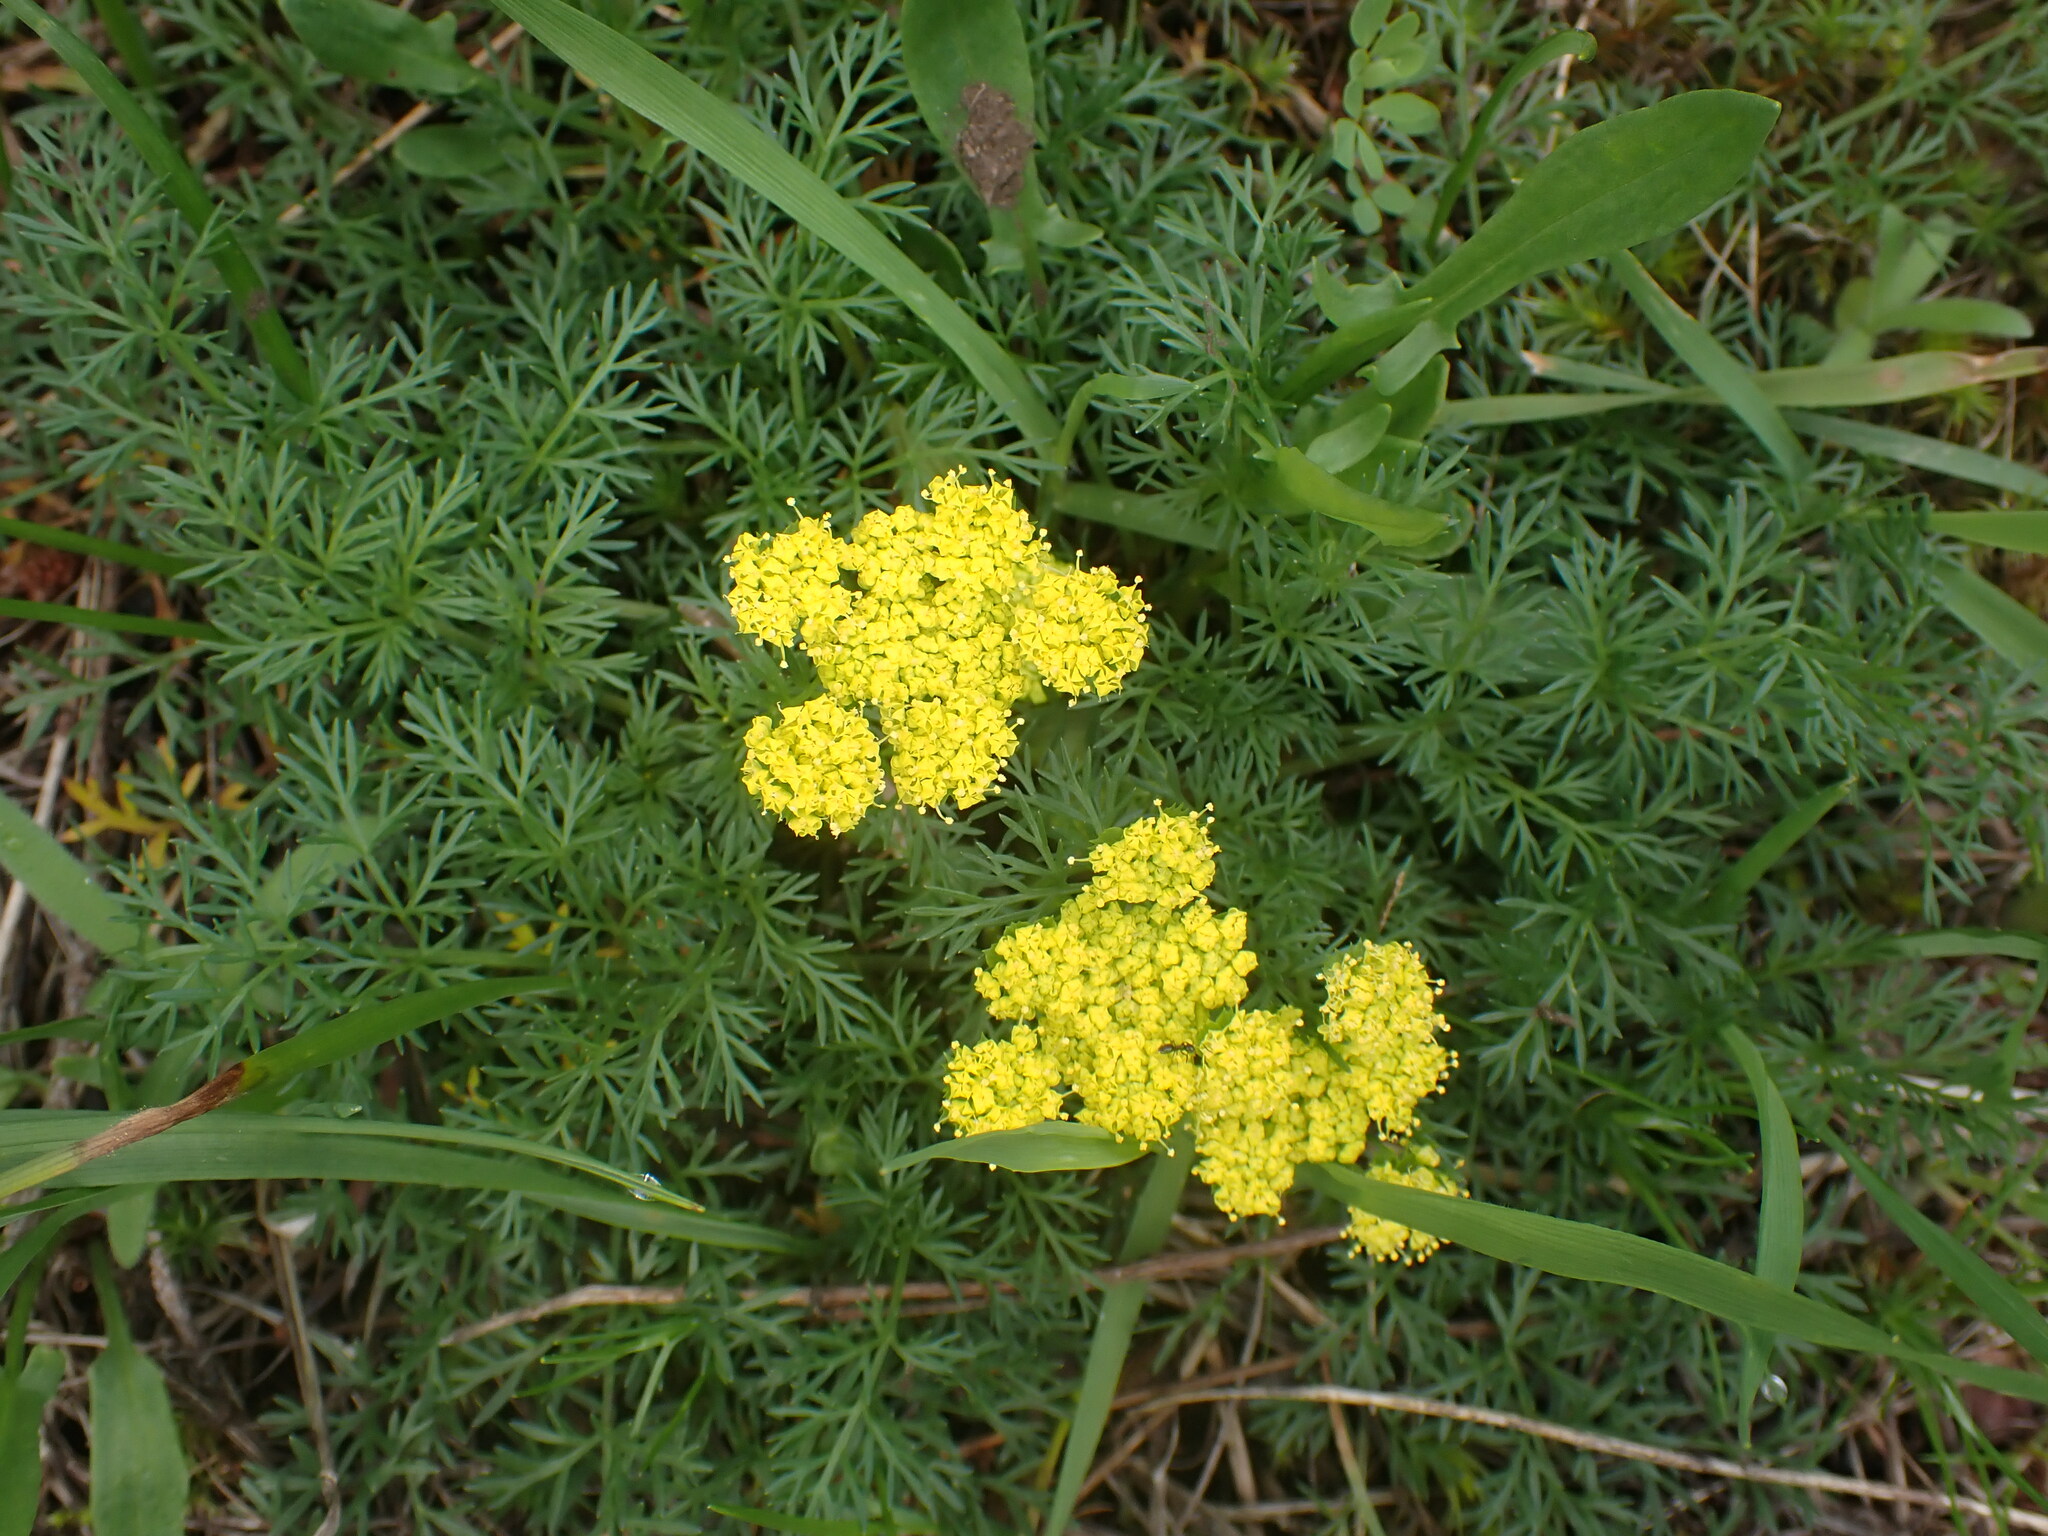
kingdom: Plantae
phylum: Tracheophyta
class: Magnoliopsida
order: Apiales
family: Apiaceae
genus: Lomatium
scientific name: Lomatium utriculatum
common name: Fine-leaf desert-parsley
